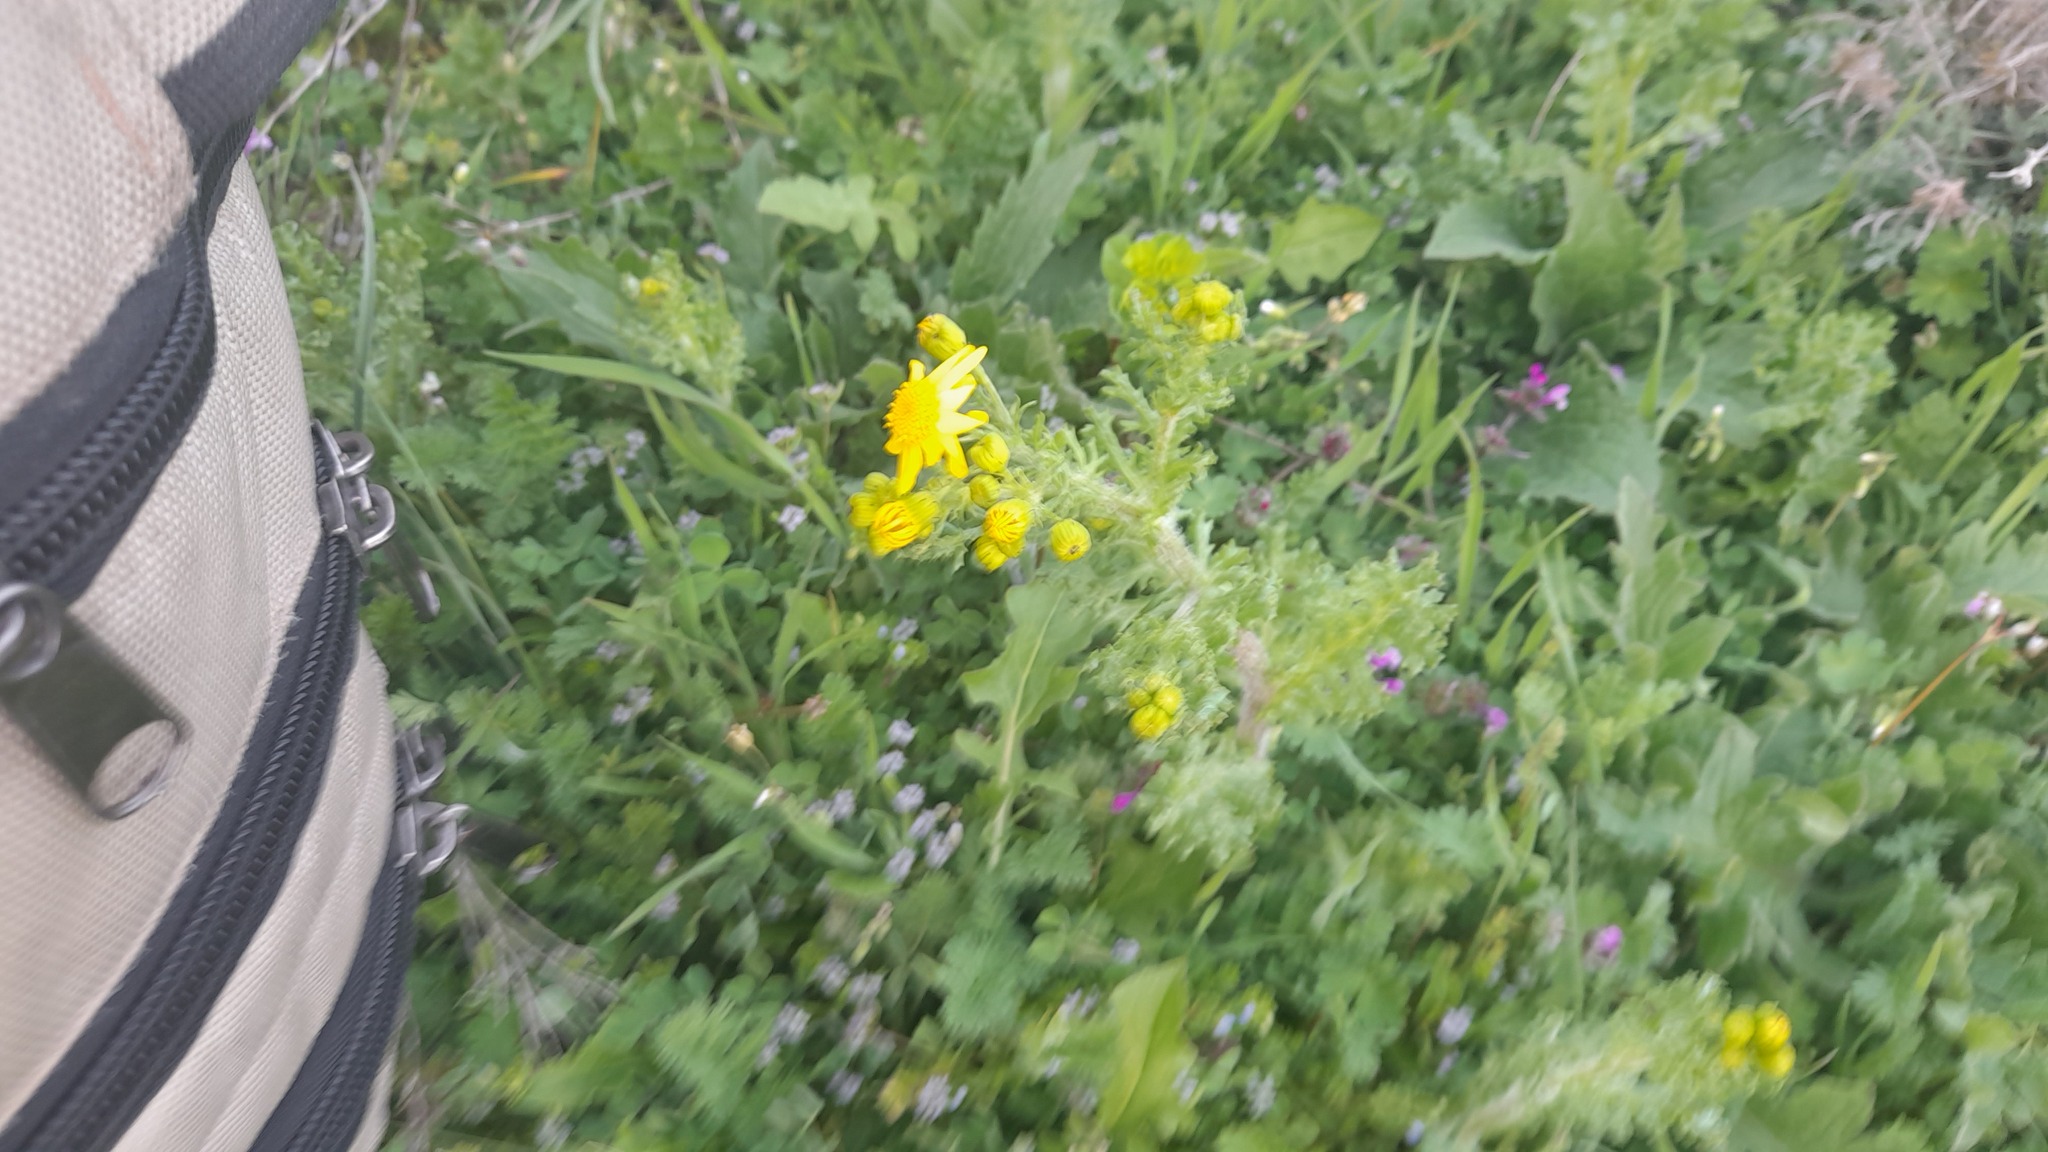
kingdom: Plantae
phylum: Tracheophyta
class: Magnoliopsida
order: Asterales
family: Asteraceae
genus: Senecio
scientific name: Senecio vernalis
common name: Eastern groundsel
